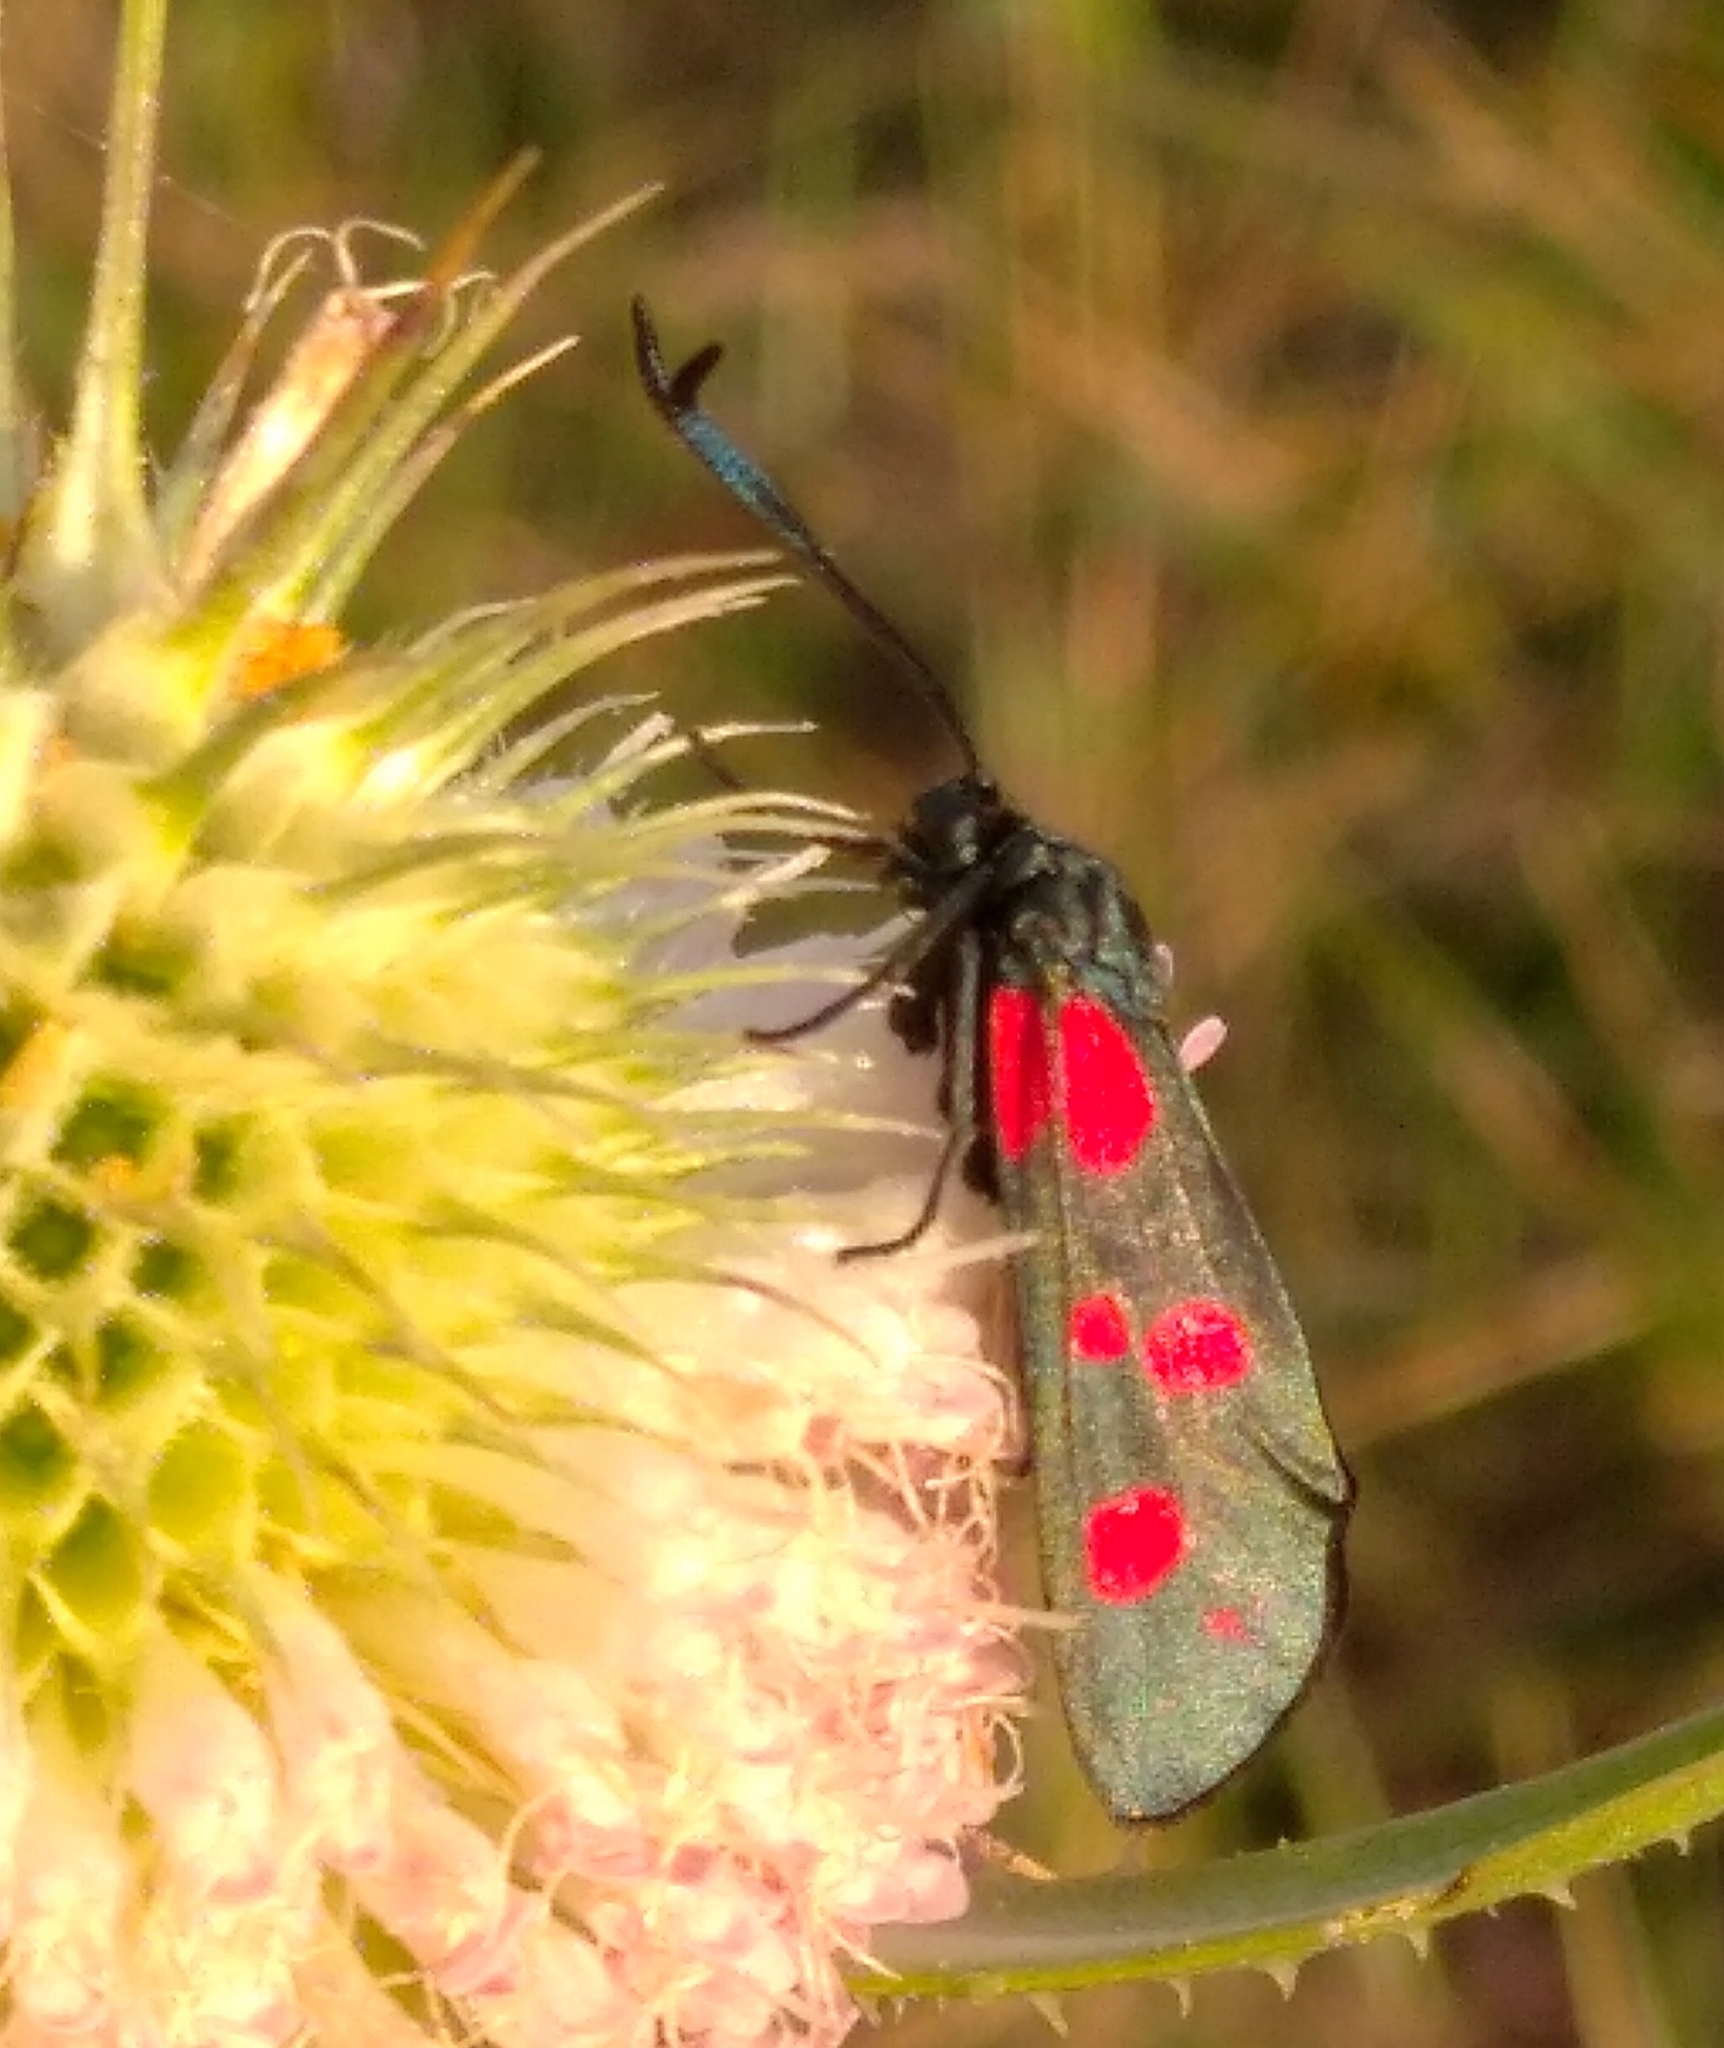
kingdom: Animalia
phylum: Arthropoda
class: Insecta
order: Lepidoptera
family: Zygaenidae
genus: Zygaena
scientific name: Zygaena filipendulae
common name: Six-spot burnet
